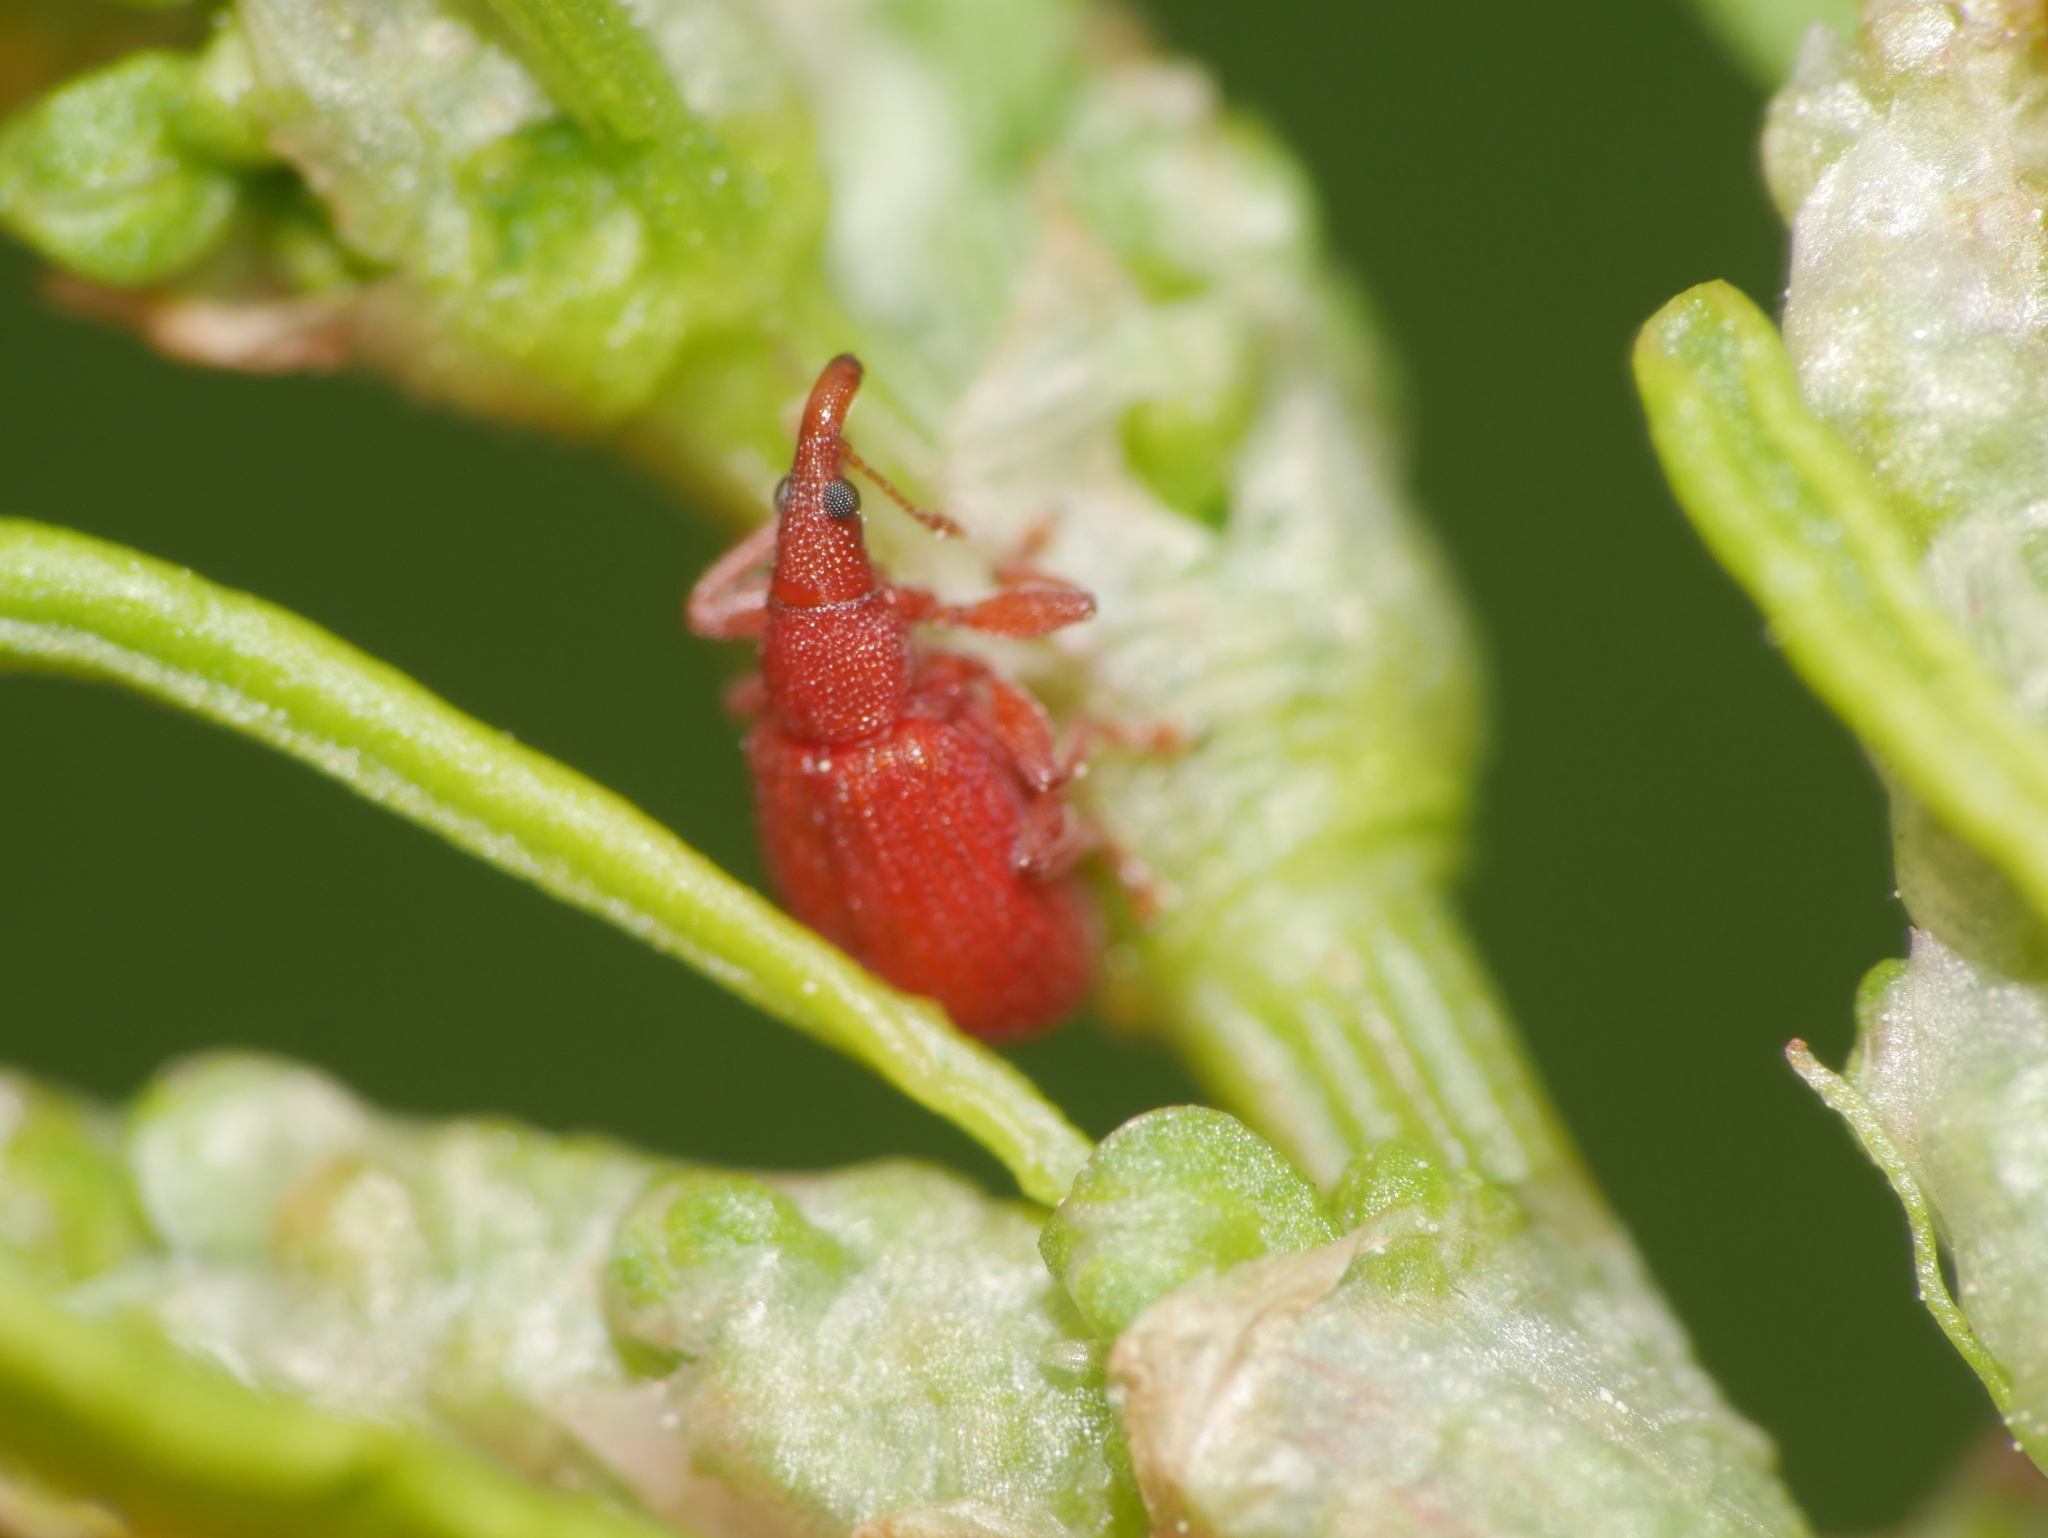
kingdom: Animalia
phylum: Arthropoda
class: Insecta
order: Coleoptera
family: Apionidae
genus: Apion
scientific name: Apion frumentarium
